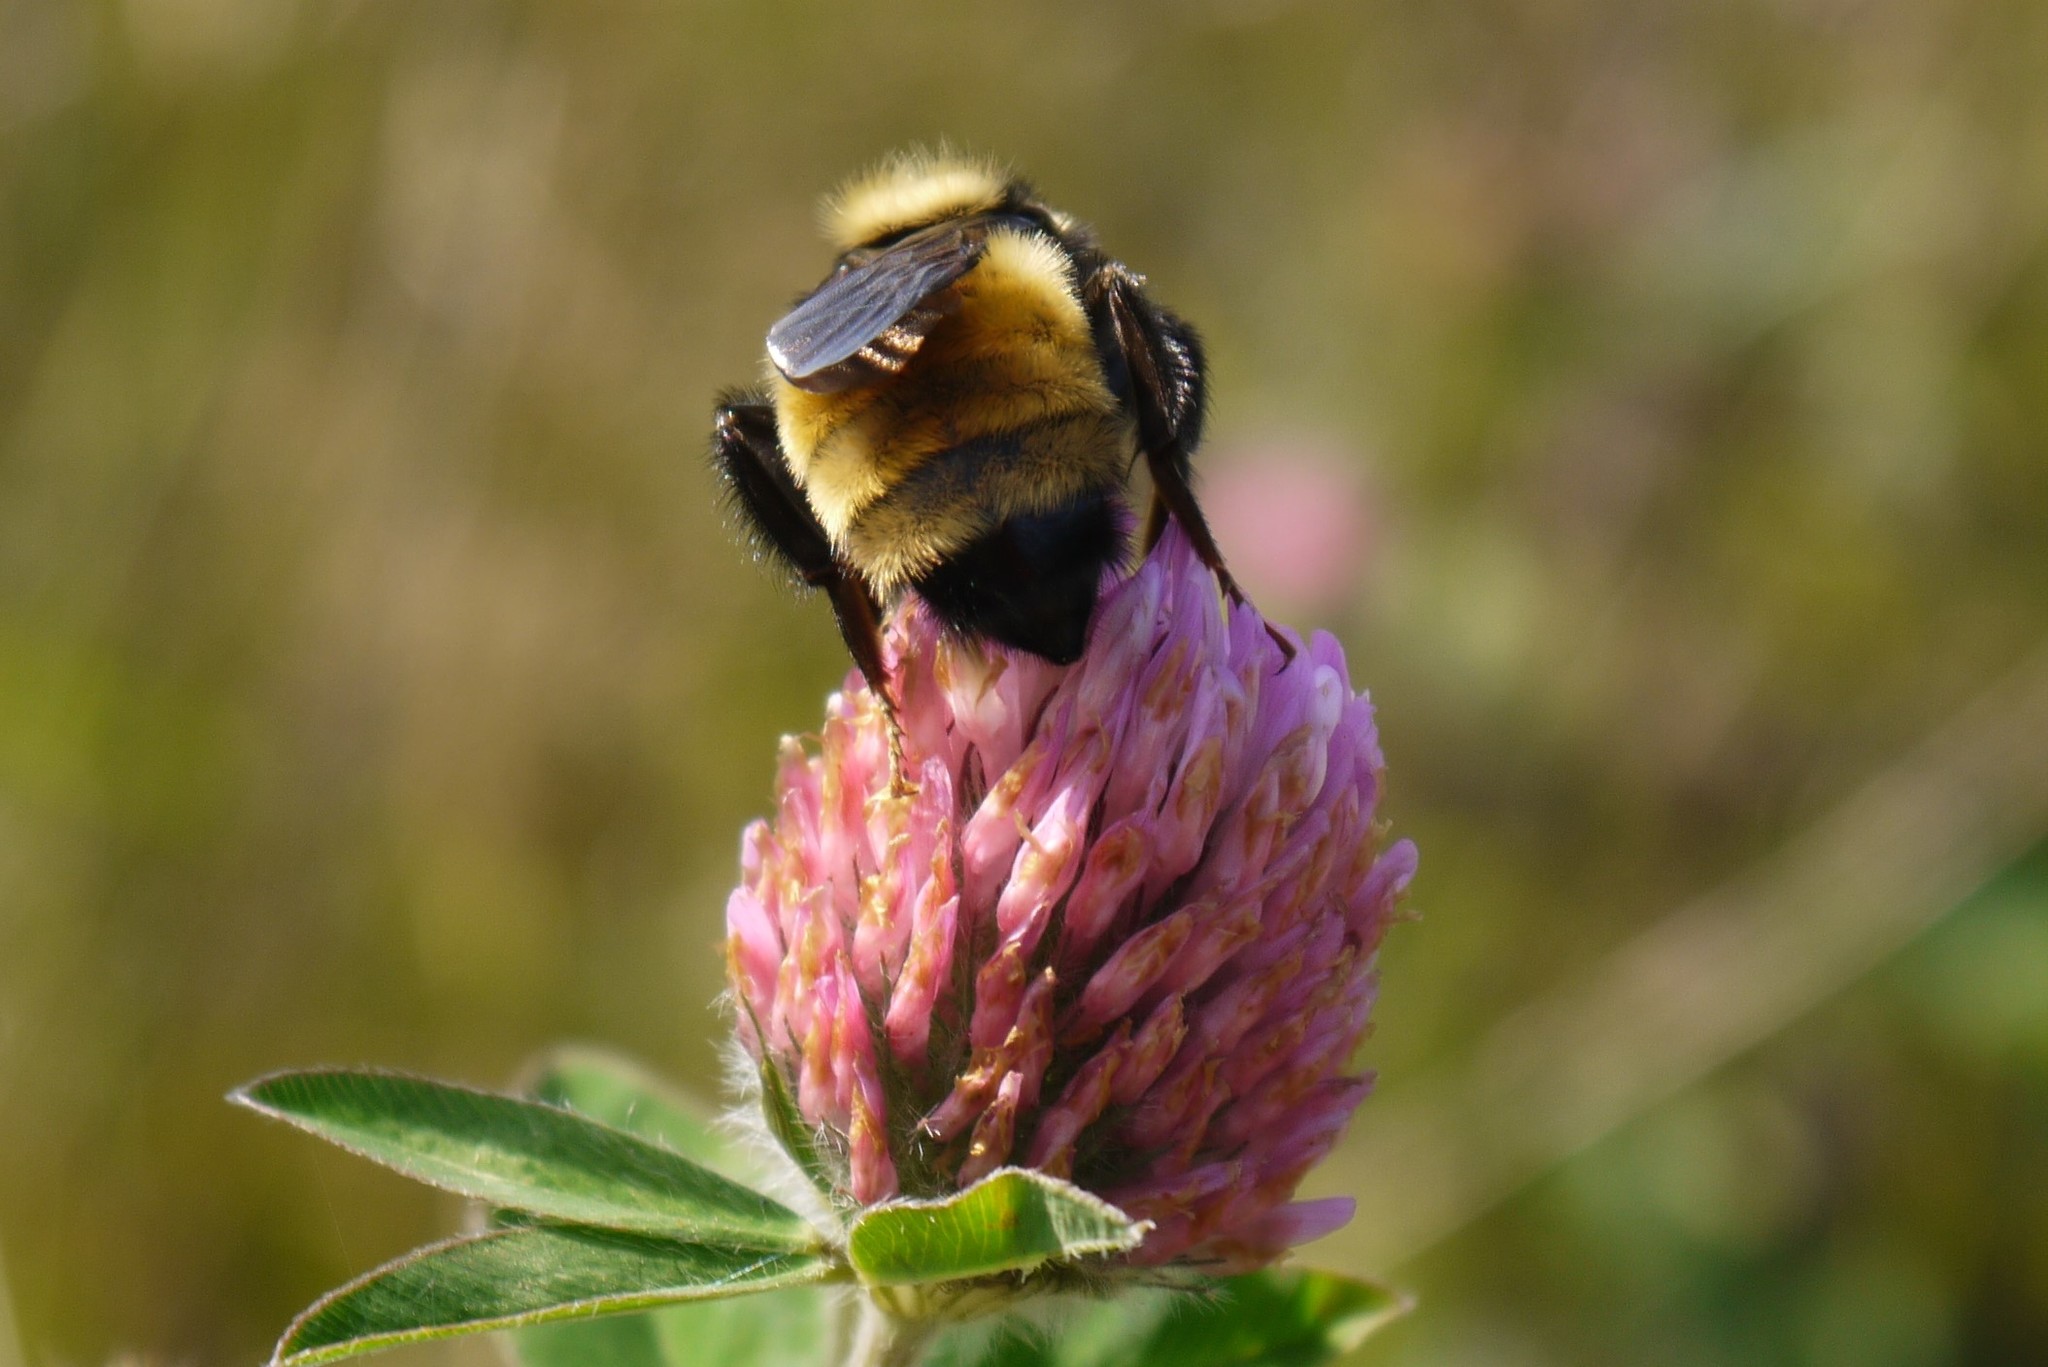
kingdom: Animalia
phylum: Arthropoda
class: Insecta
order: Hymenoptera
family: Apidae
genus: Bombus
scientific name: Bombus borealis
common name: Northern amber bumble bee
